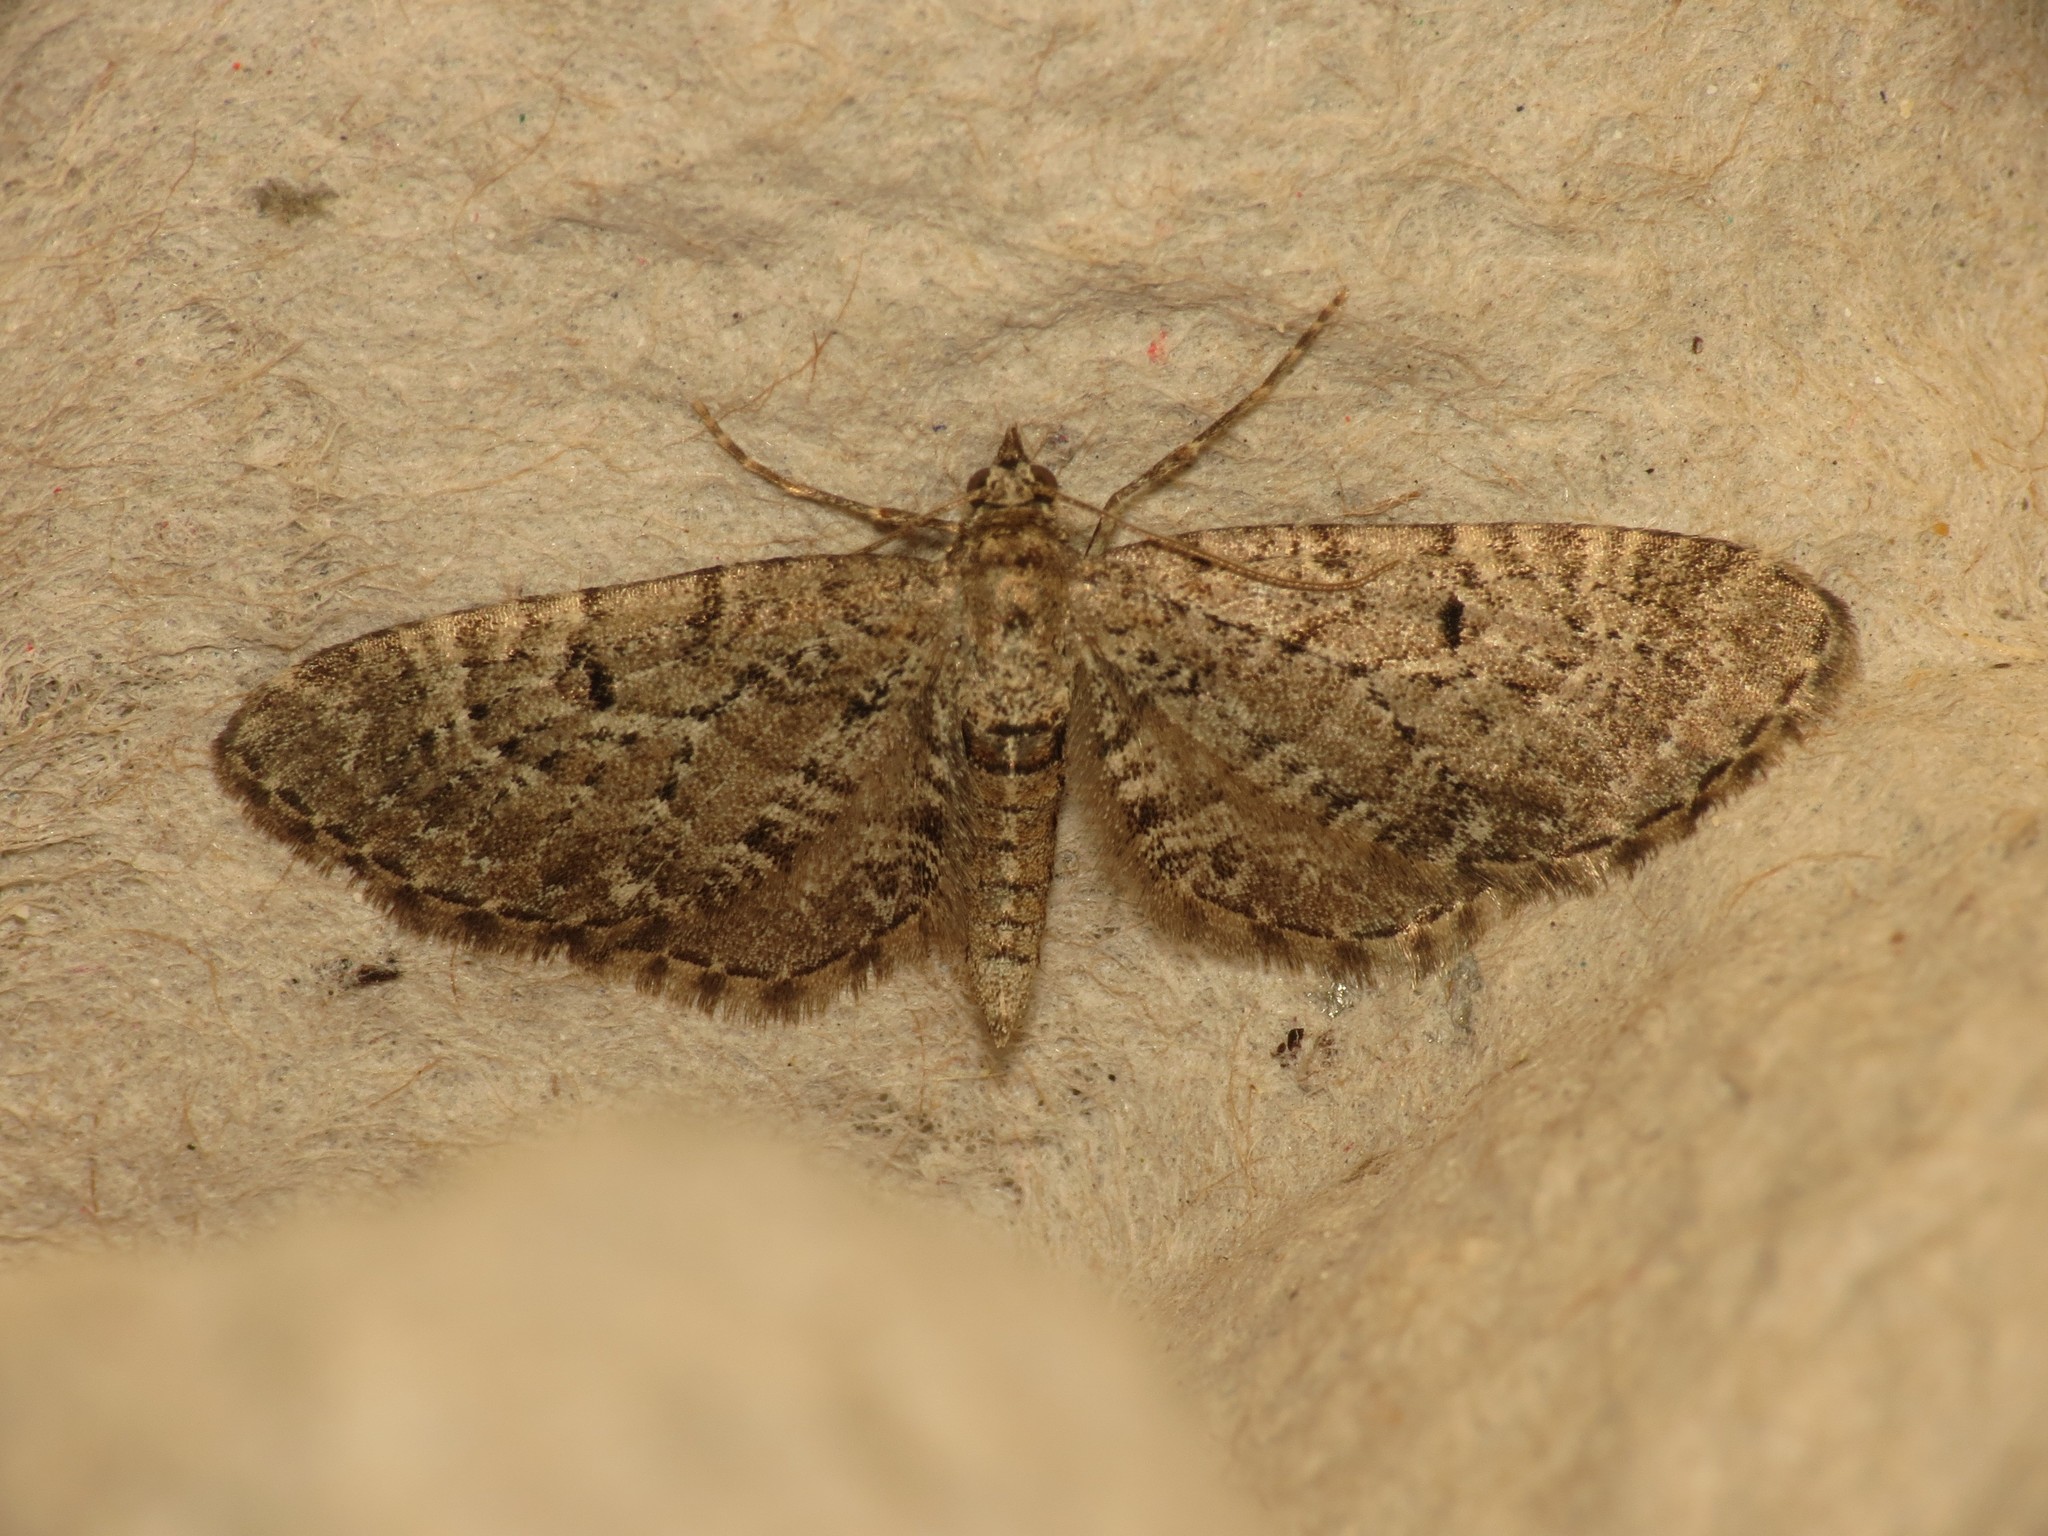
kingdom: Animalia
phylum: Arthropoda
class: Insecta
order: Lepidoptera
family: Geometridae
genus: Eupithecia
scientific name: Eupithecia intricata
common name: Freyers pug
